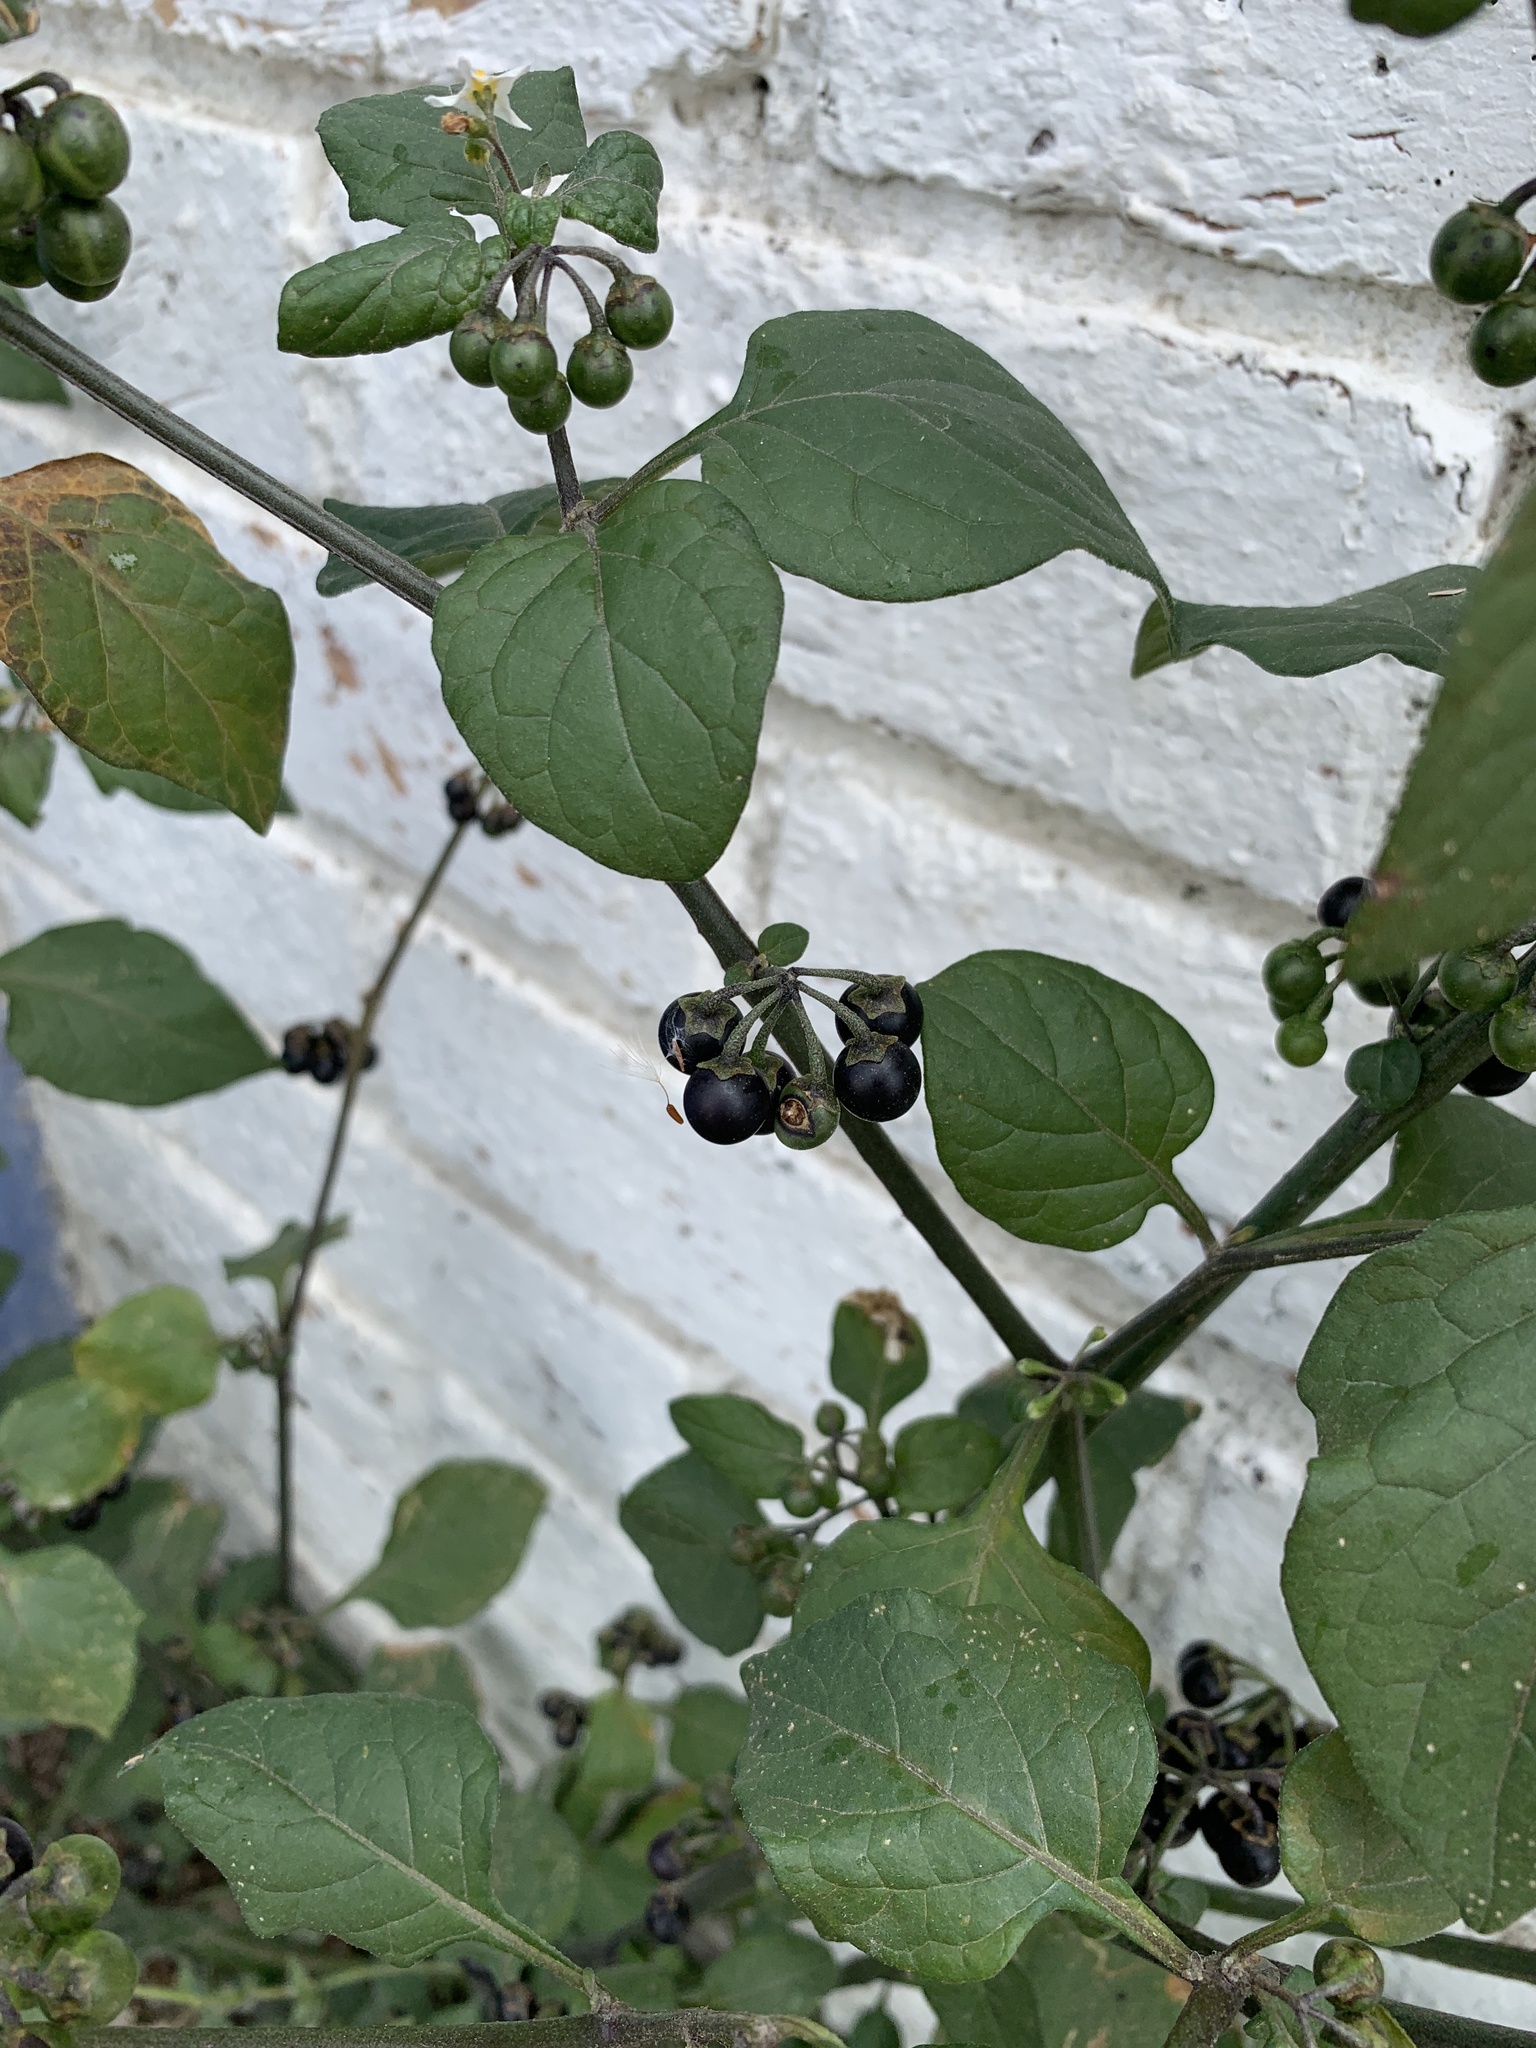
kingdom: Plantae
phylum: Tracheophyta
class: Magnoliopsida
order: Solanales
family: Solanaceae
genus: Solanum
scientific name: Solanum nigrum
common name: Black nightshade
